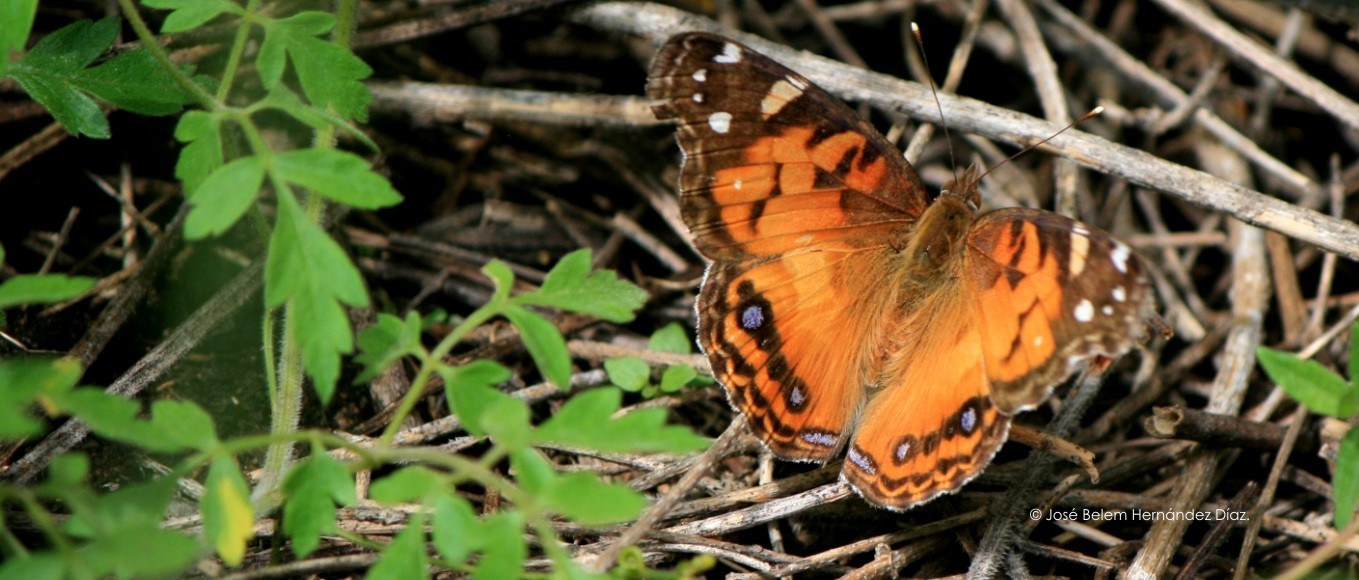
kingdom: Animalia
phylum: Arthropoda
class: Insecta
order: Lepidoptera
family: Nymphalidae
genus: Vanessa
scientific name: Vanessa virginiensis
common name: American lady
